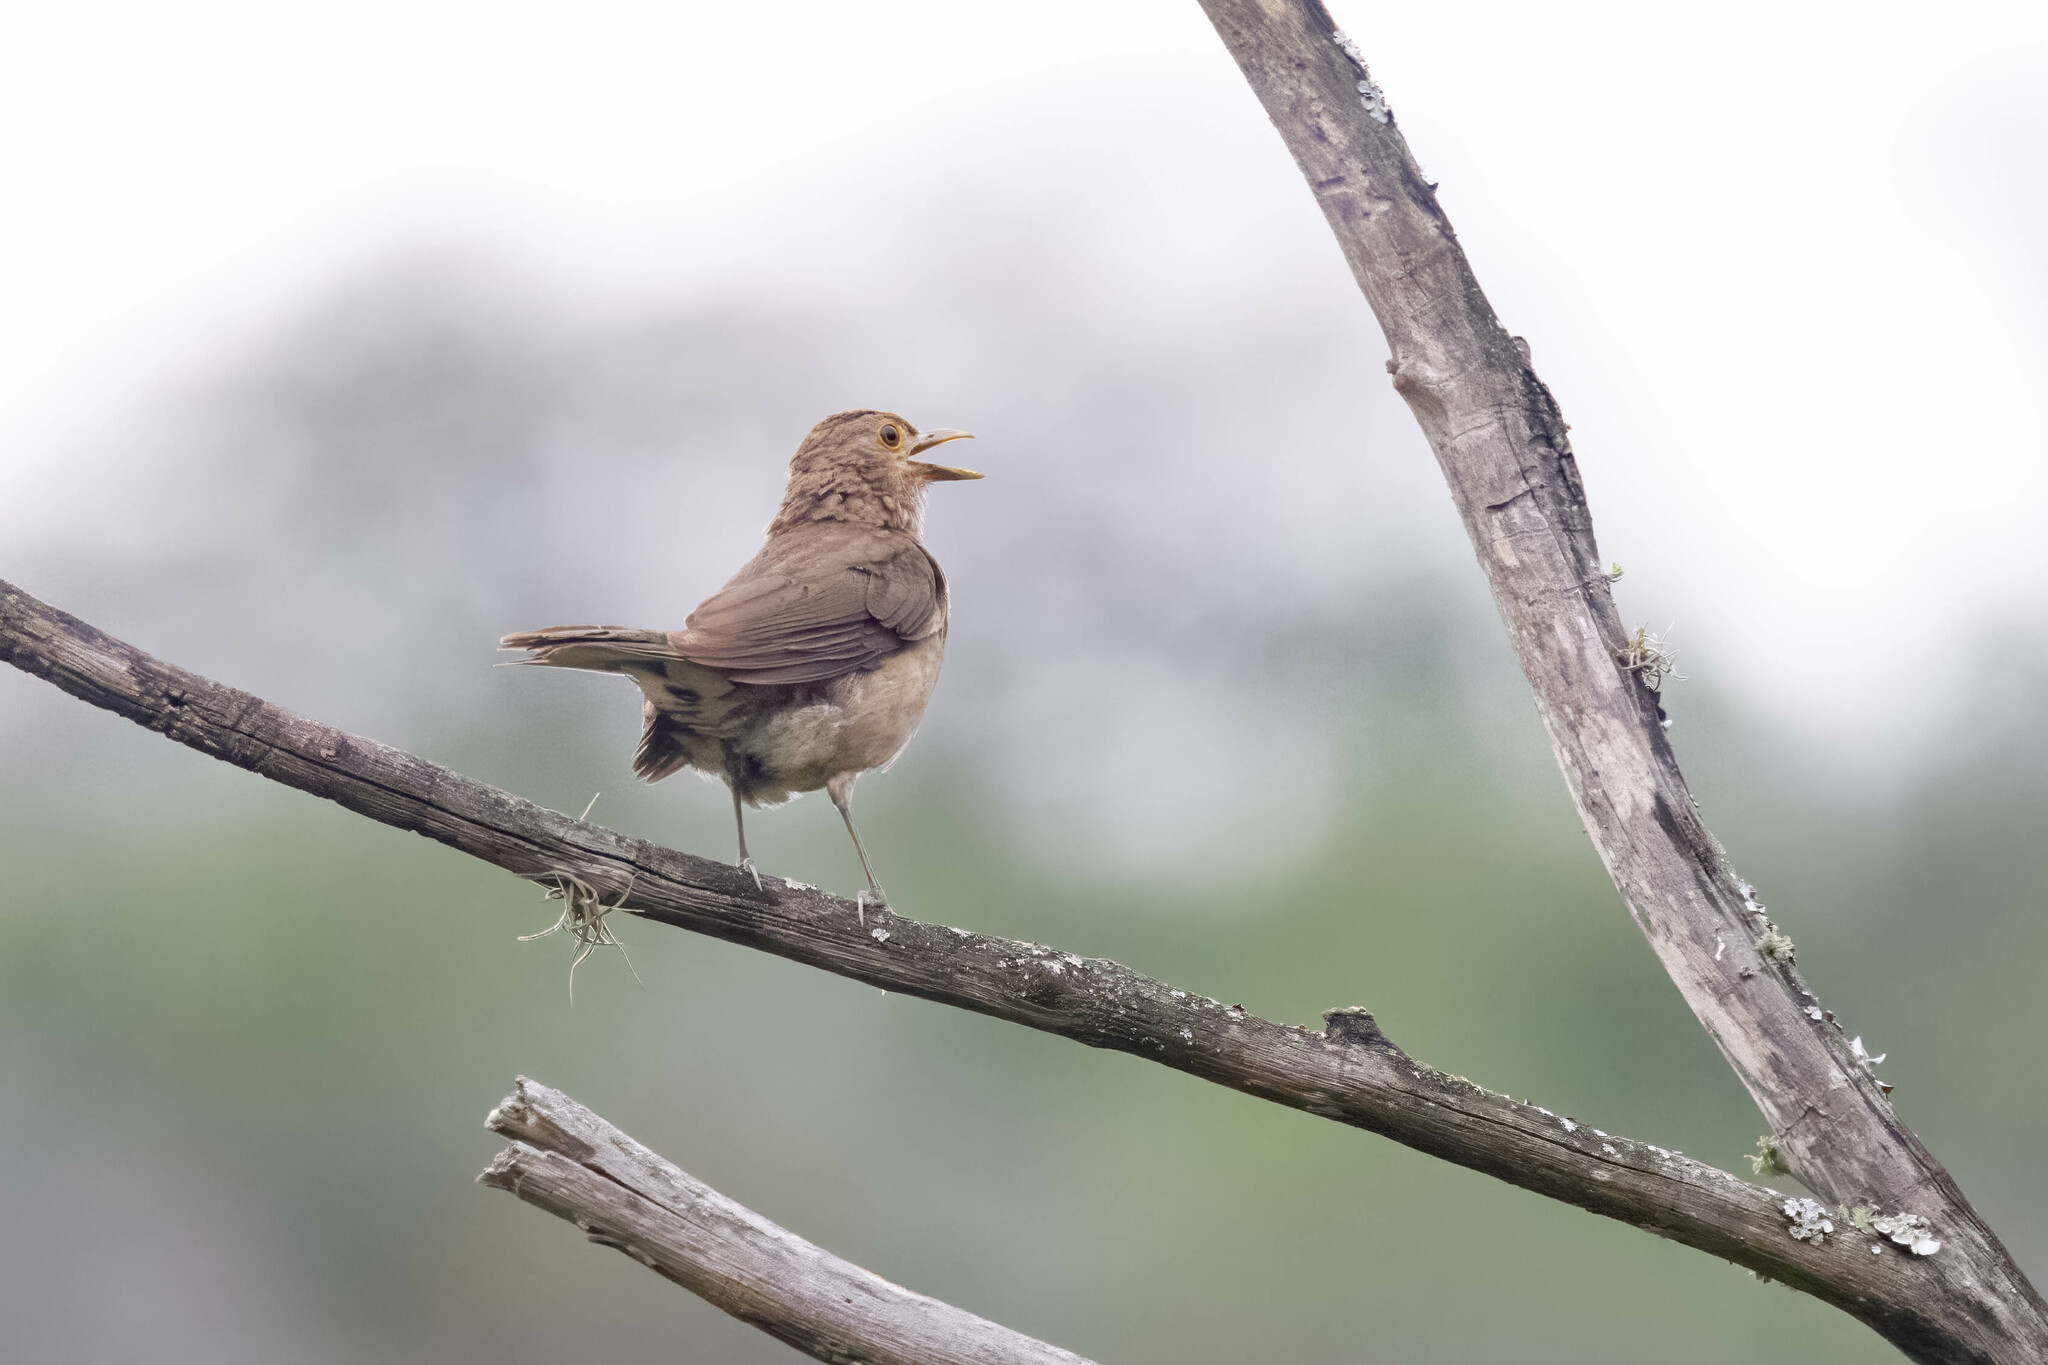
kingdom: Animalia
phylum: Chordata
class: Aves
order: Passeriformes
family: Turdidae
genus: Turdus
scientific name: Turdus maculirostris
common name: Ecuadorian thrush
